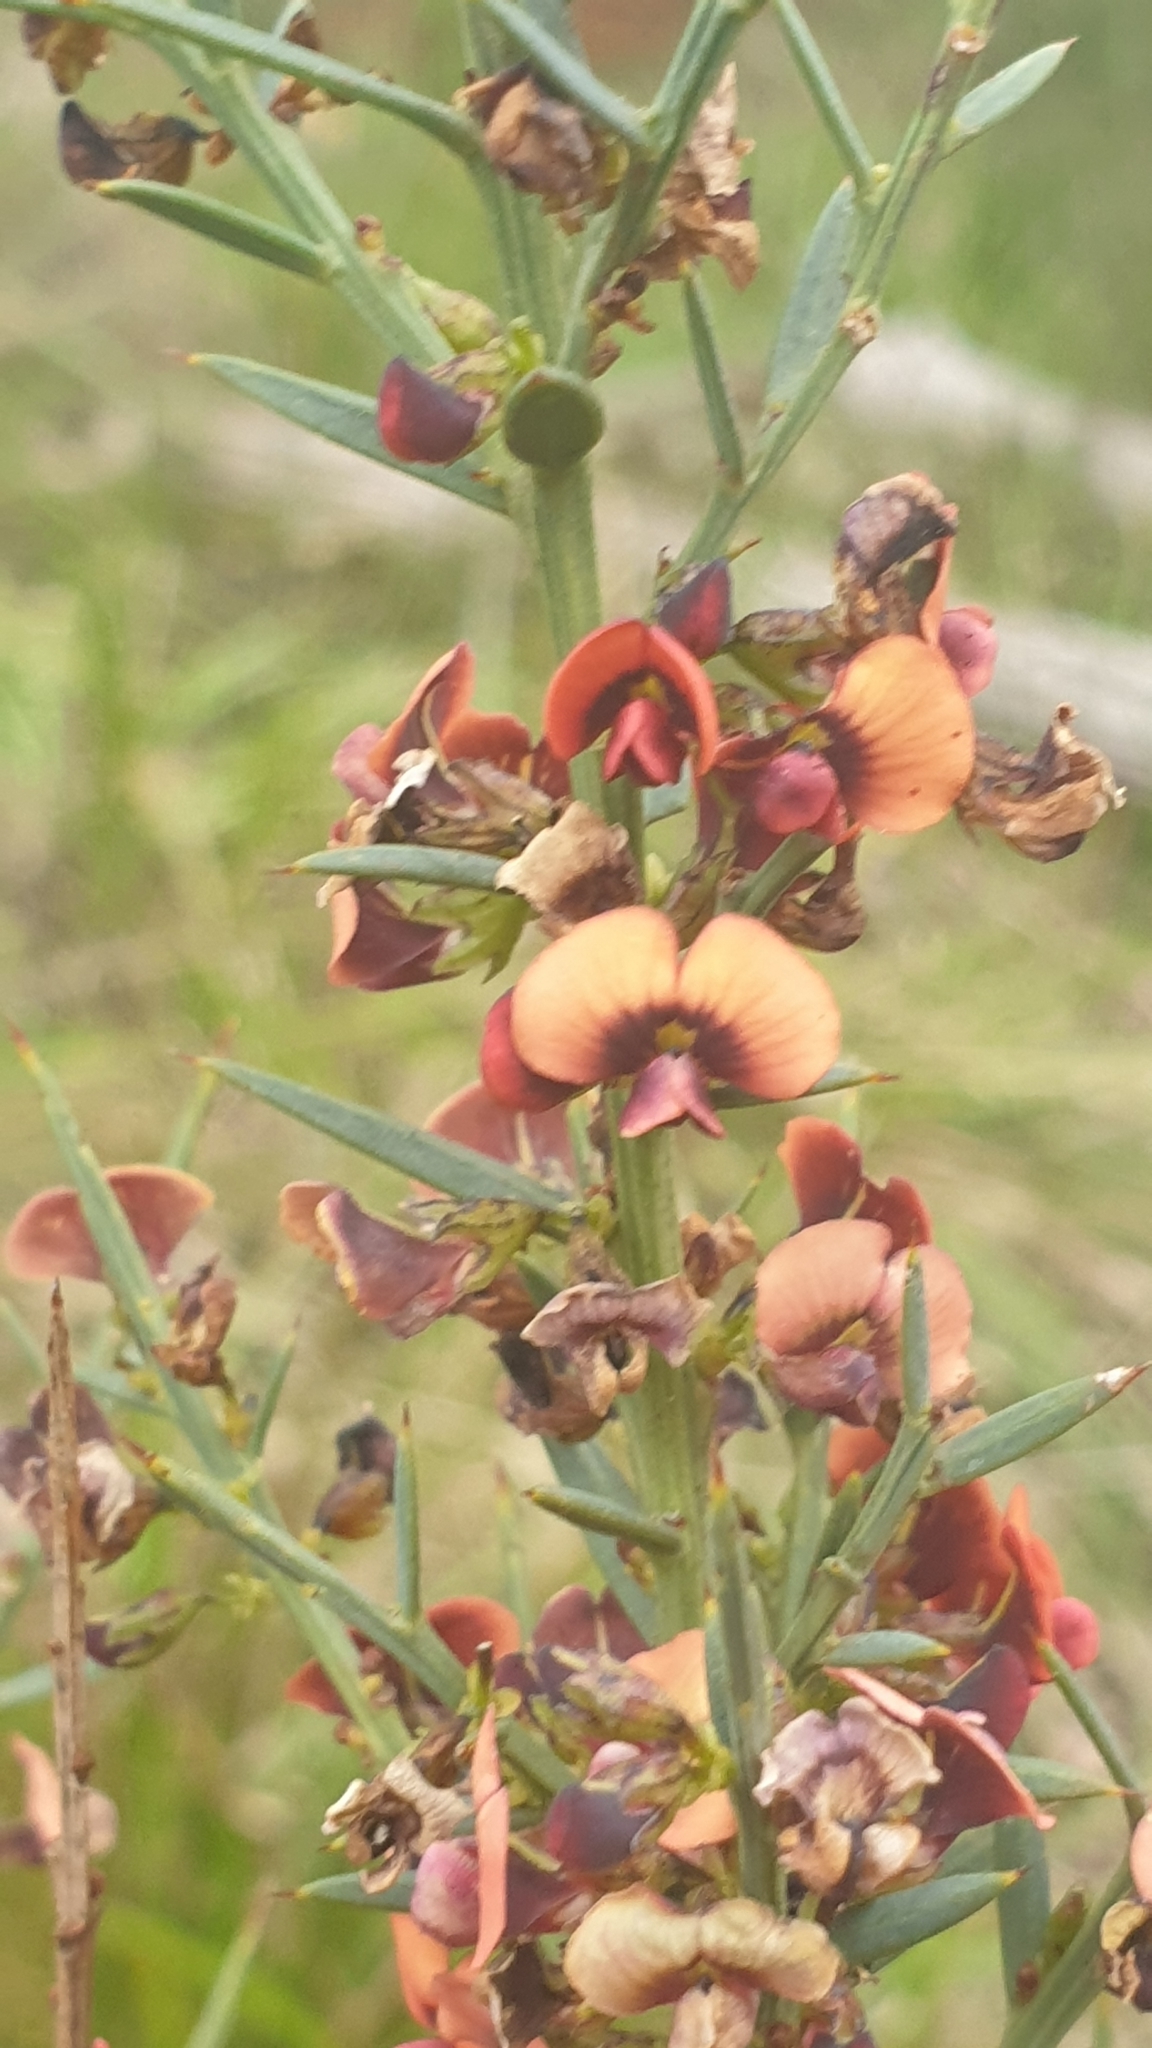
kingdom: Plantae
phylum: Tracheophyta
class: Magnoliopsida
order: Fabales
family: Fabaceae
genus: Daviesia
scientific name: Daviesia ulicifolia
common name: Gorse bitter-pea
